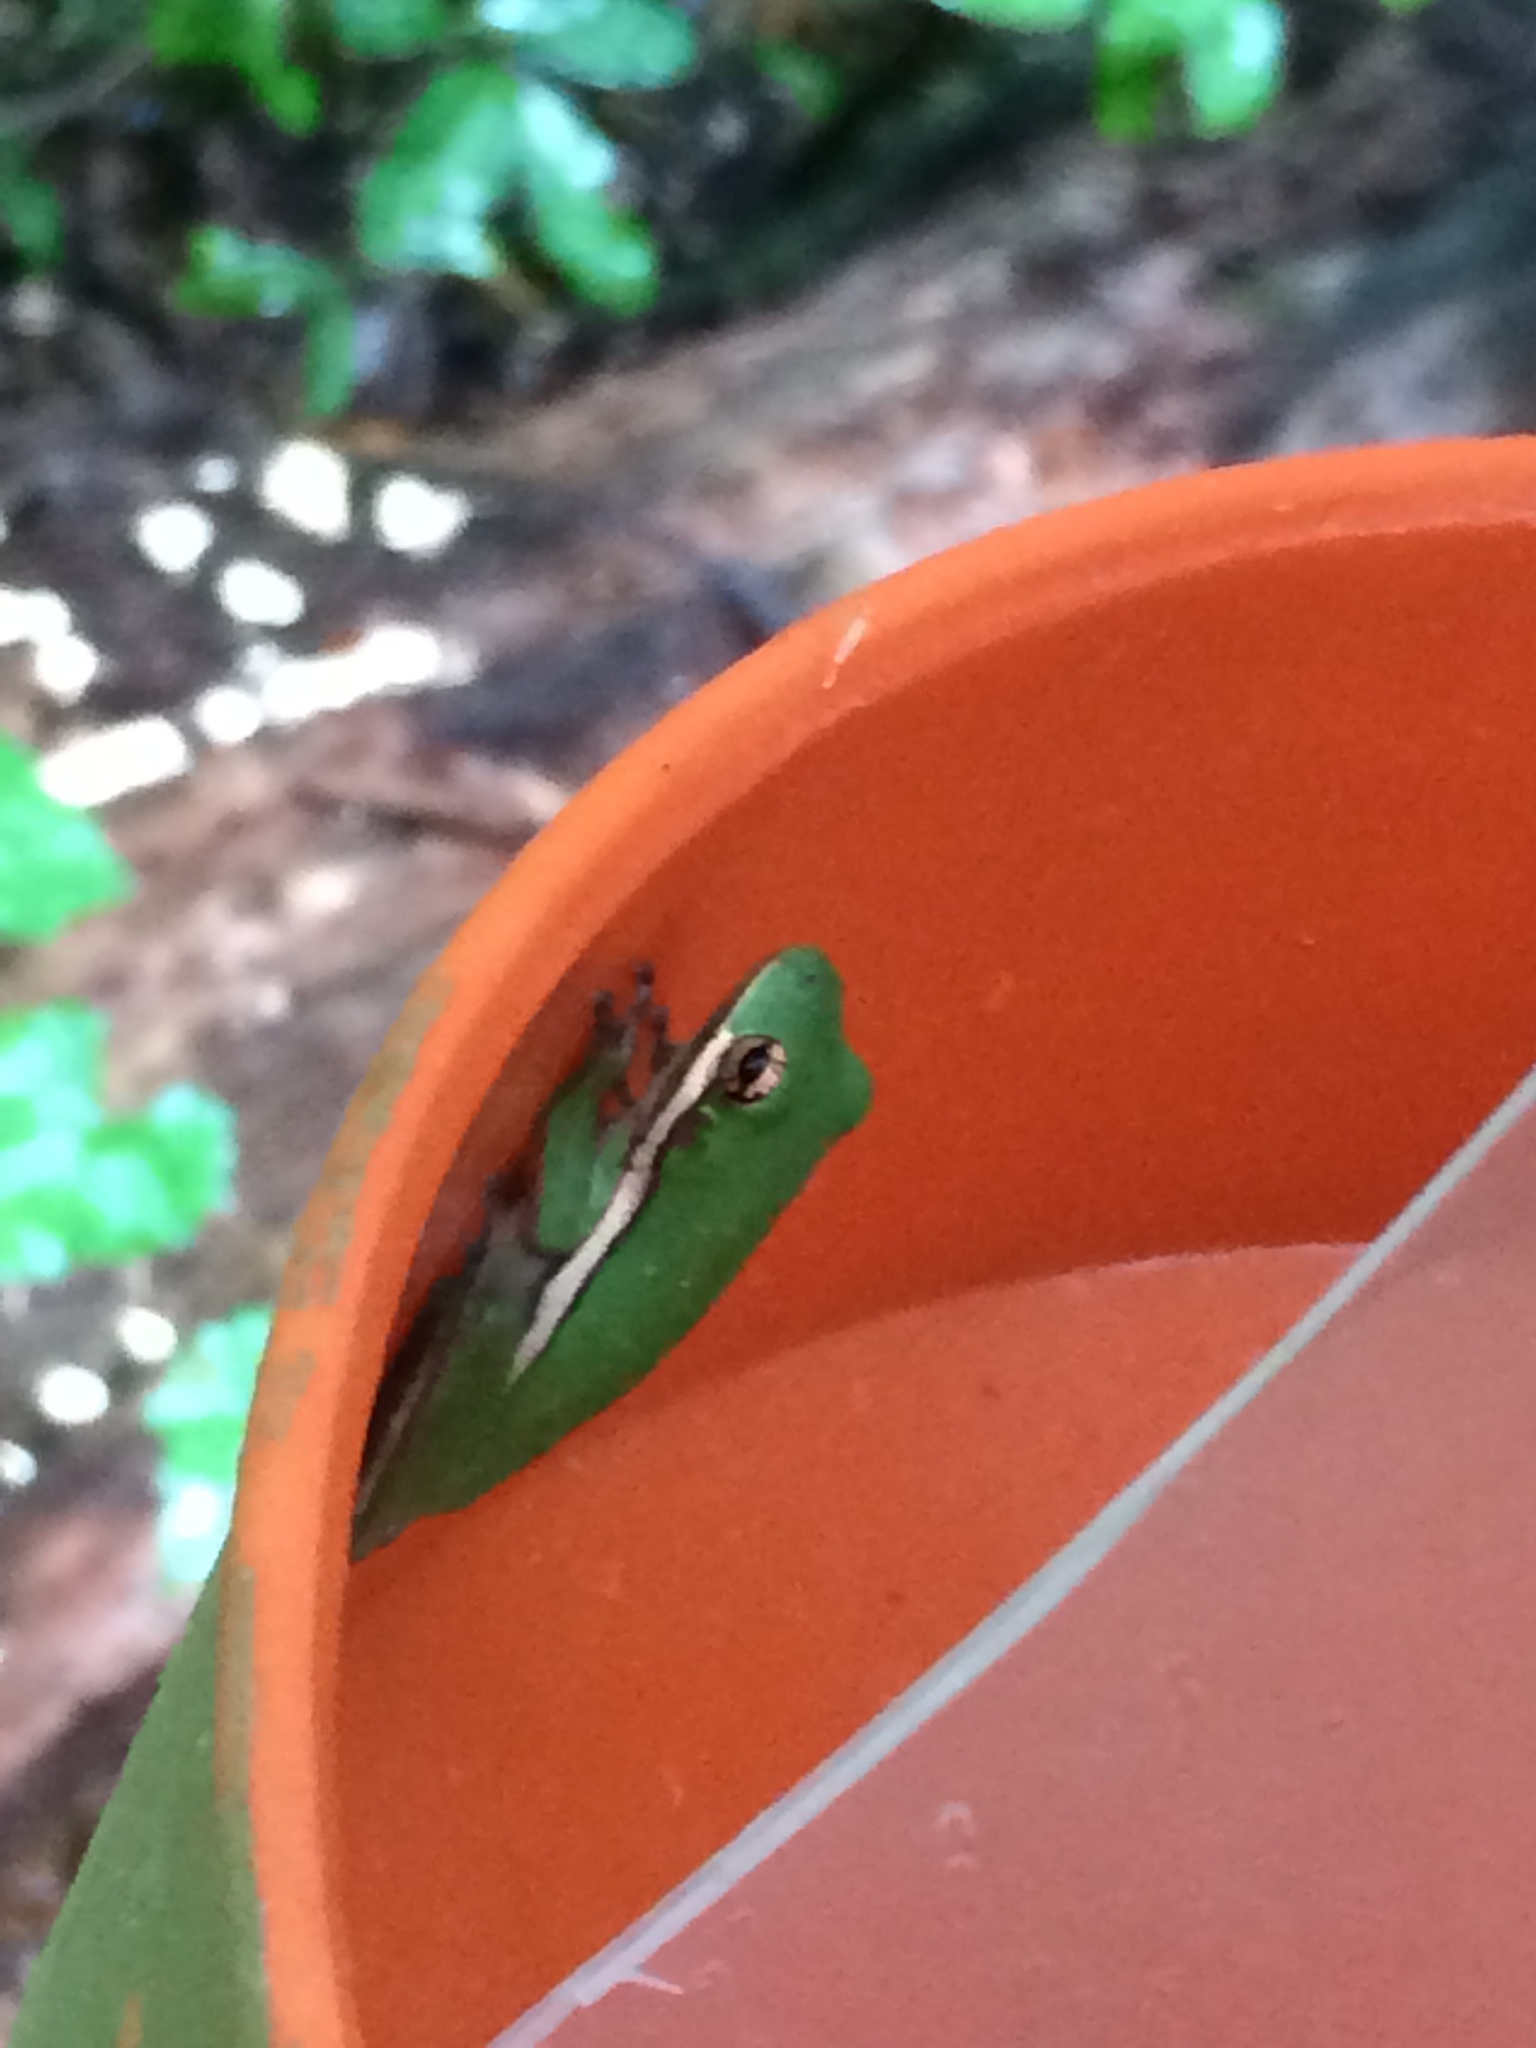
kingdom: Animalia
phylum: Chordata
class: Amphibia
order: Anura
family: Hylidae
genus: Dryophytes
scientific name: Dryophytes cinereus
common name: Green treefrog
